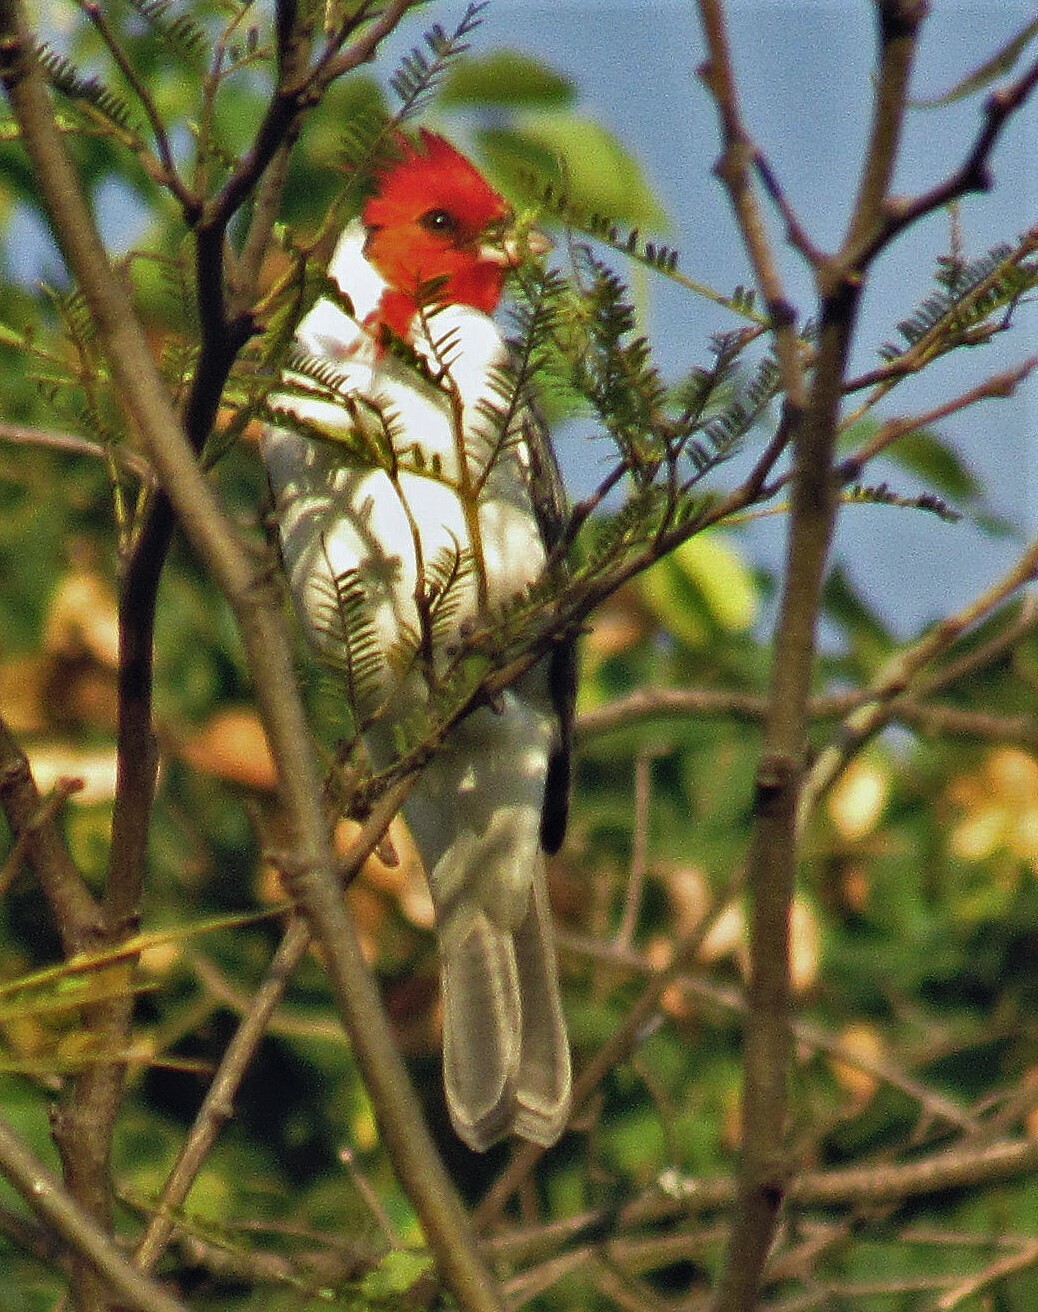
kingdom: Animalia
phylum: Chordata
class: Aves
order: Passeriformes
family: Thraupidae
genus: Paroaria
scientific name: Paroaria coronata
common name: Red-crested cardinal
